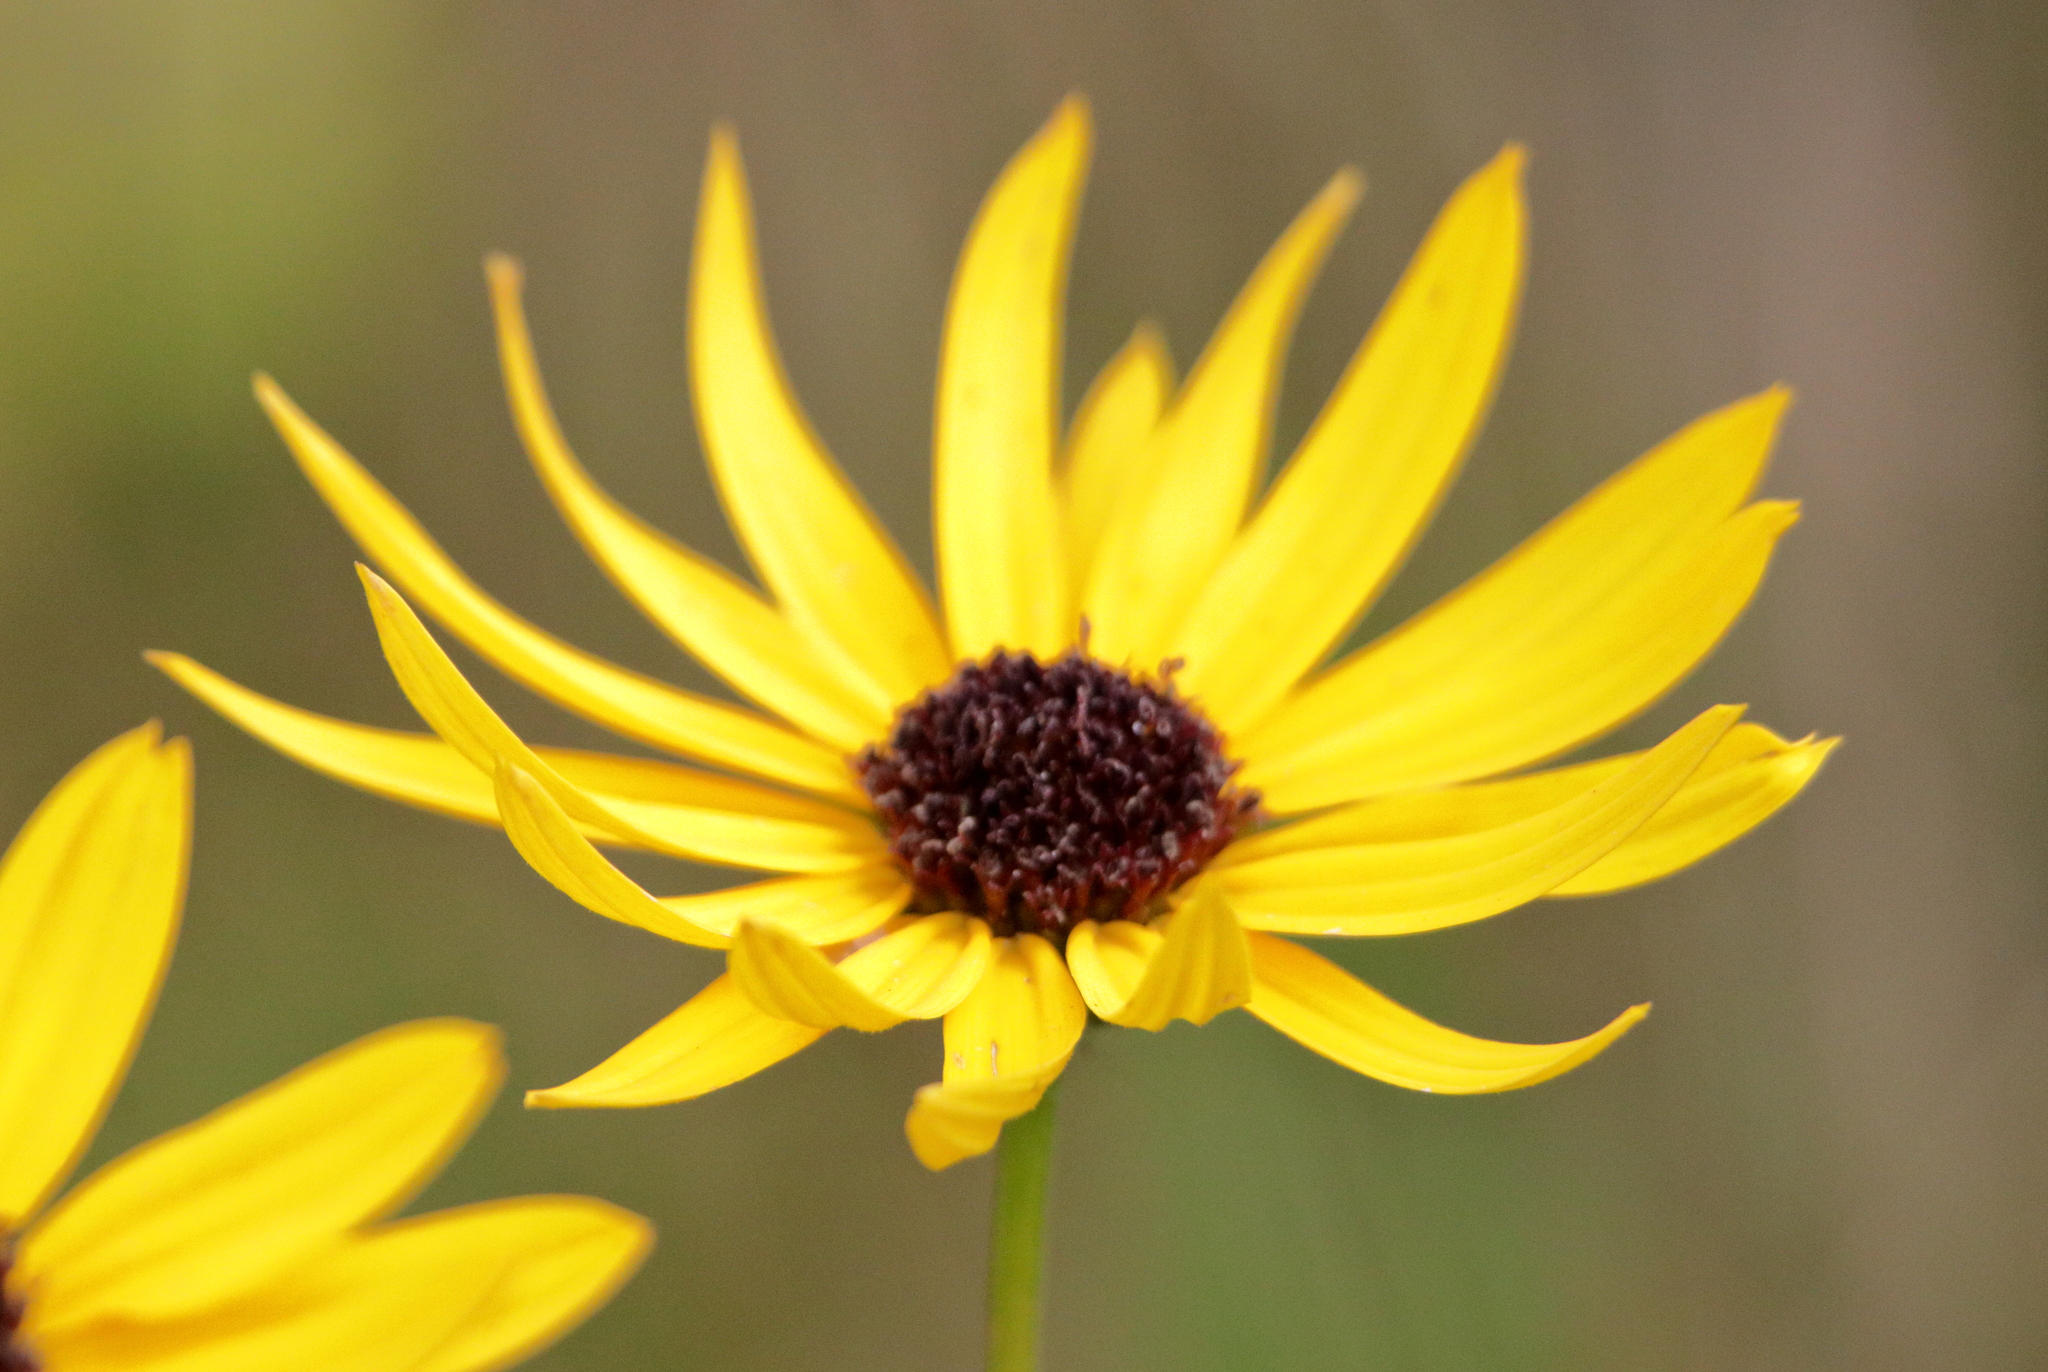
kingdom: Plantae
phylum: Tracheophyta
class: Magnoliopsida
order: Asterales
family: Asteraceae
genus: Helianthus
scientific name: Helianthus heterophyllus
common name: Wetland sunflower
